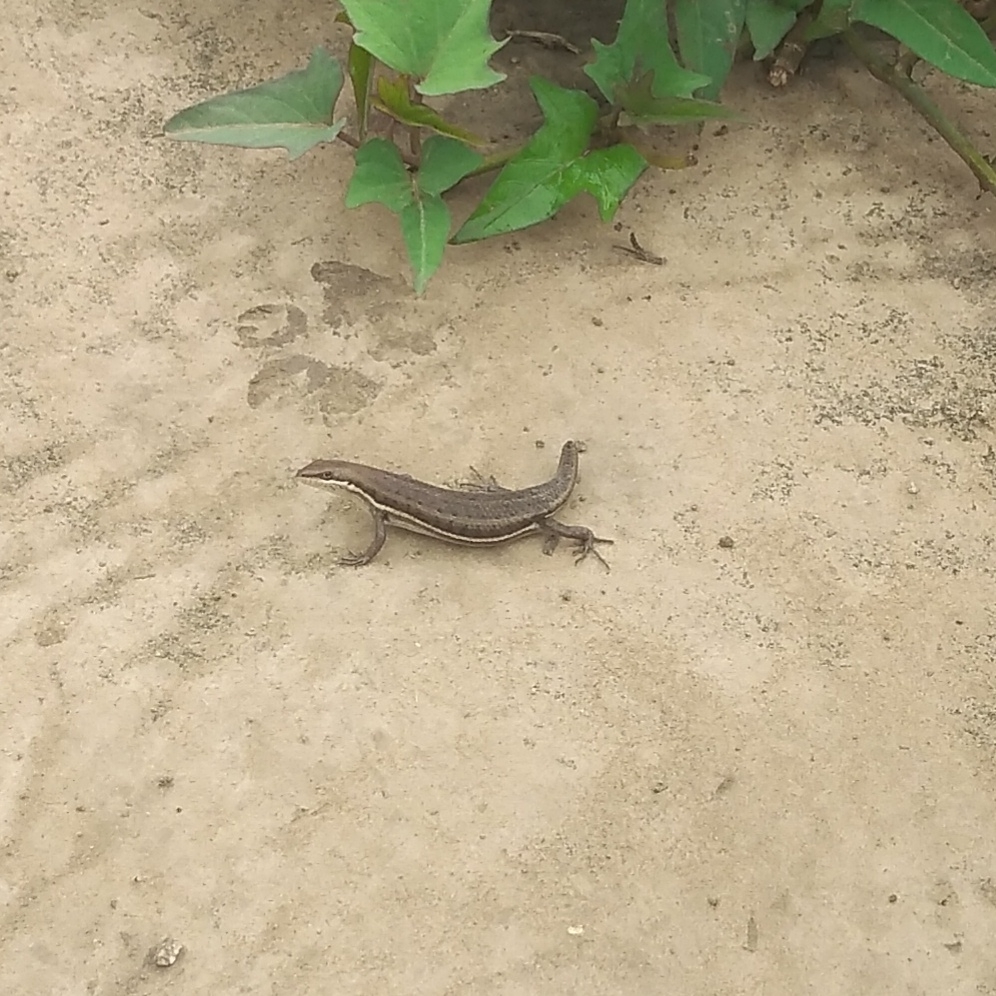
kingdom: Animalia
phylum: Chordata
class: Squamata
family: Scincidae
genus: Trachylepis
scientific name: Trachylepis varia
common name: Eastern variable skink
